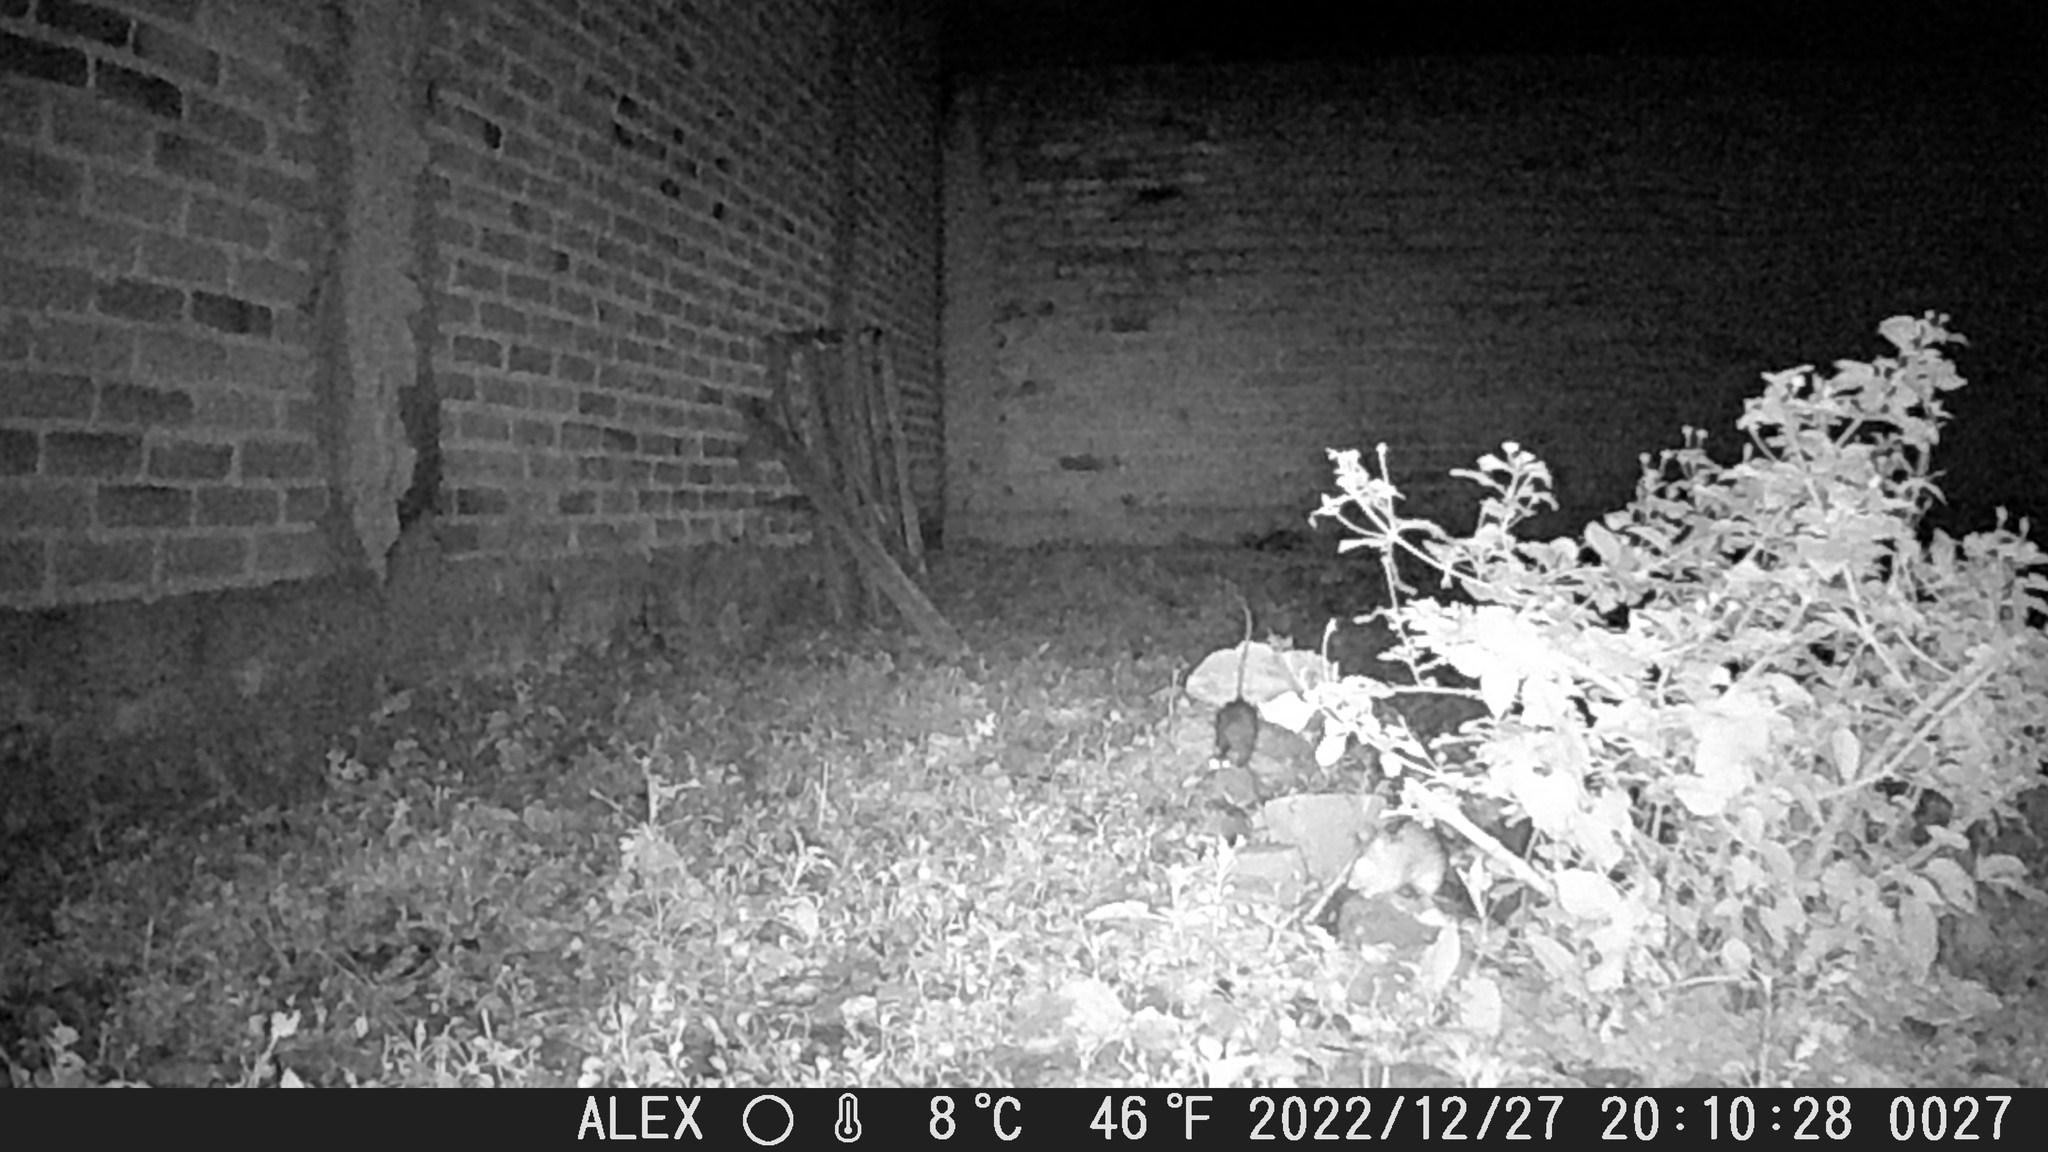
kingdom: Animalia
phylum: Chordata
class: Mammalia
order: Rodentia
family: Muridae
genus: Rattus
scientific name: Rattus
